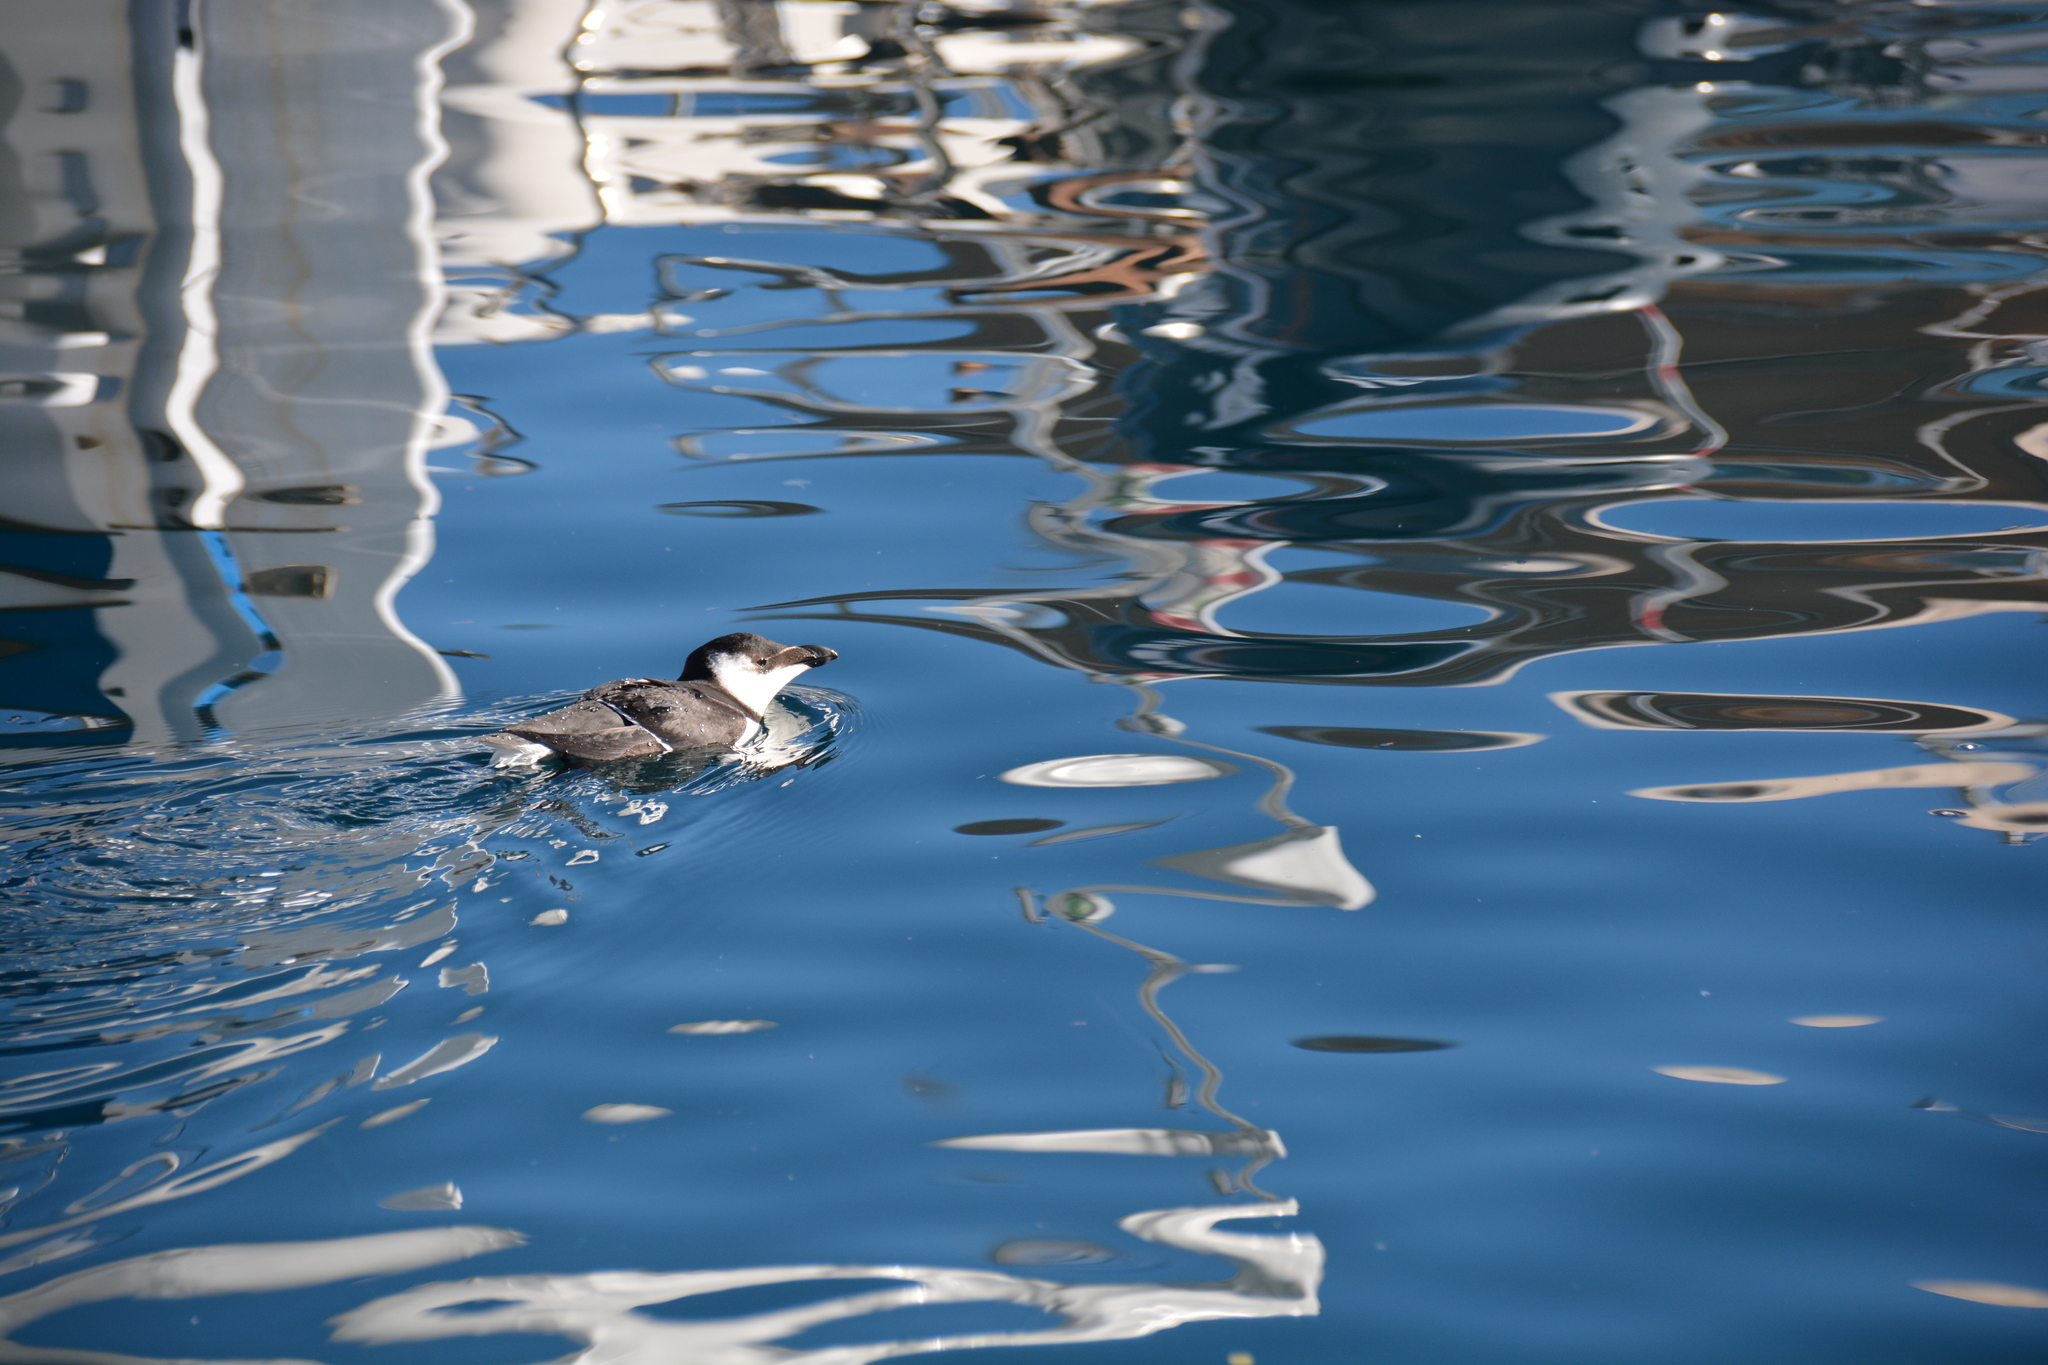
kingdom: Animalia
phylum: Chordata
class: Aves
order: Charadriiformes
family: Alcidae
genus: Alca
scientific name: Alca torda
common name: Razorbill
